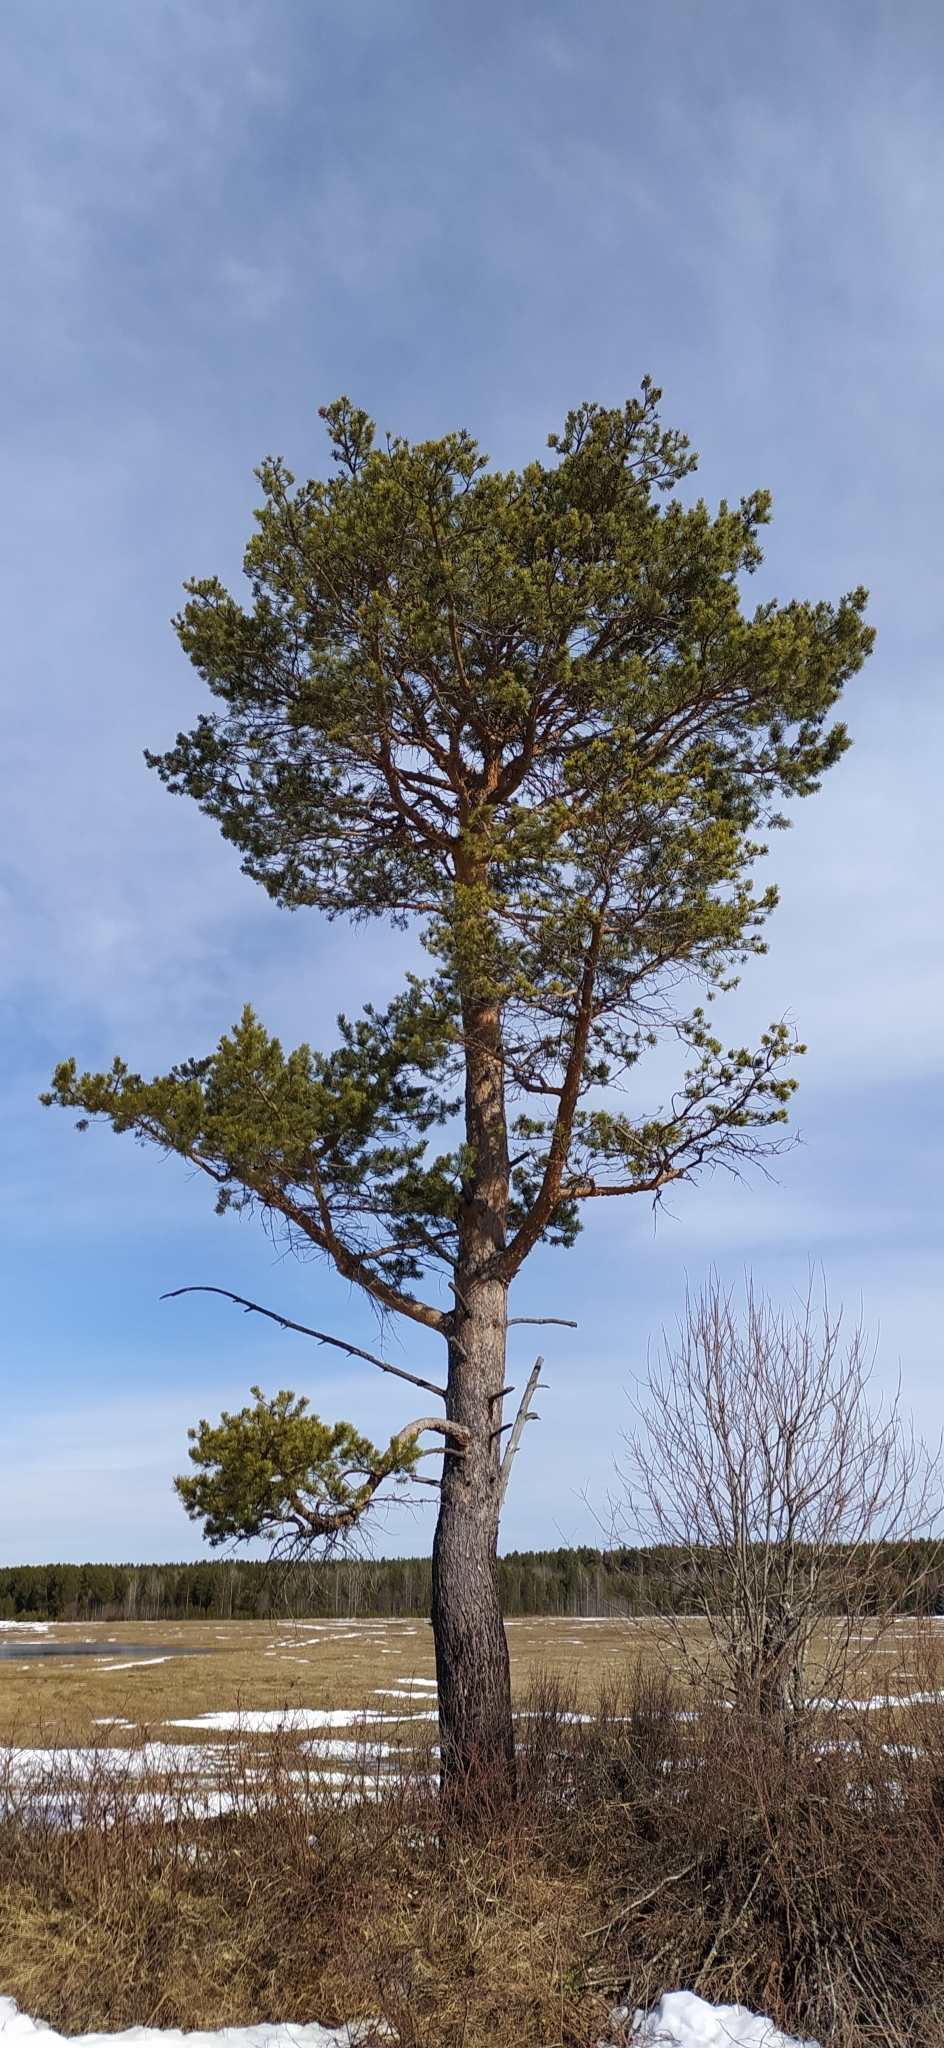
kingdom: Plantae
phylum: Tracheophyta
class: Pinopsida
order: Pinales
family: Pinaceae
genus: Pinus
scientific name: Pinus sylvestris
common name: Scots pine
